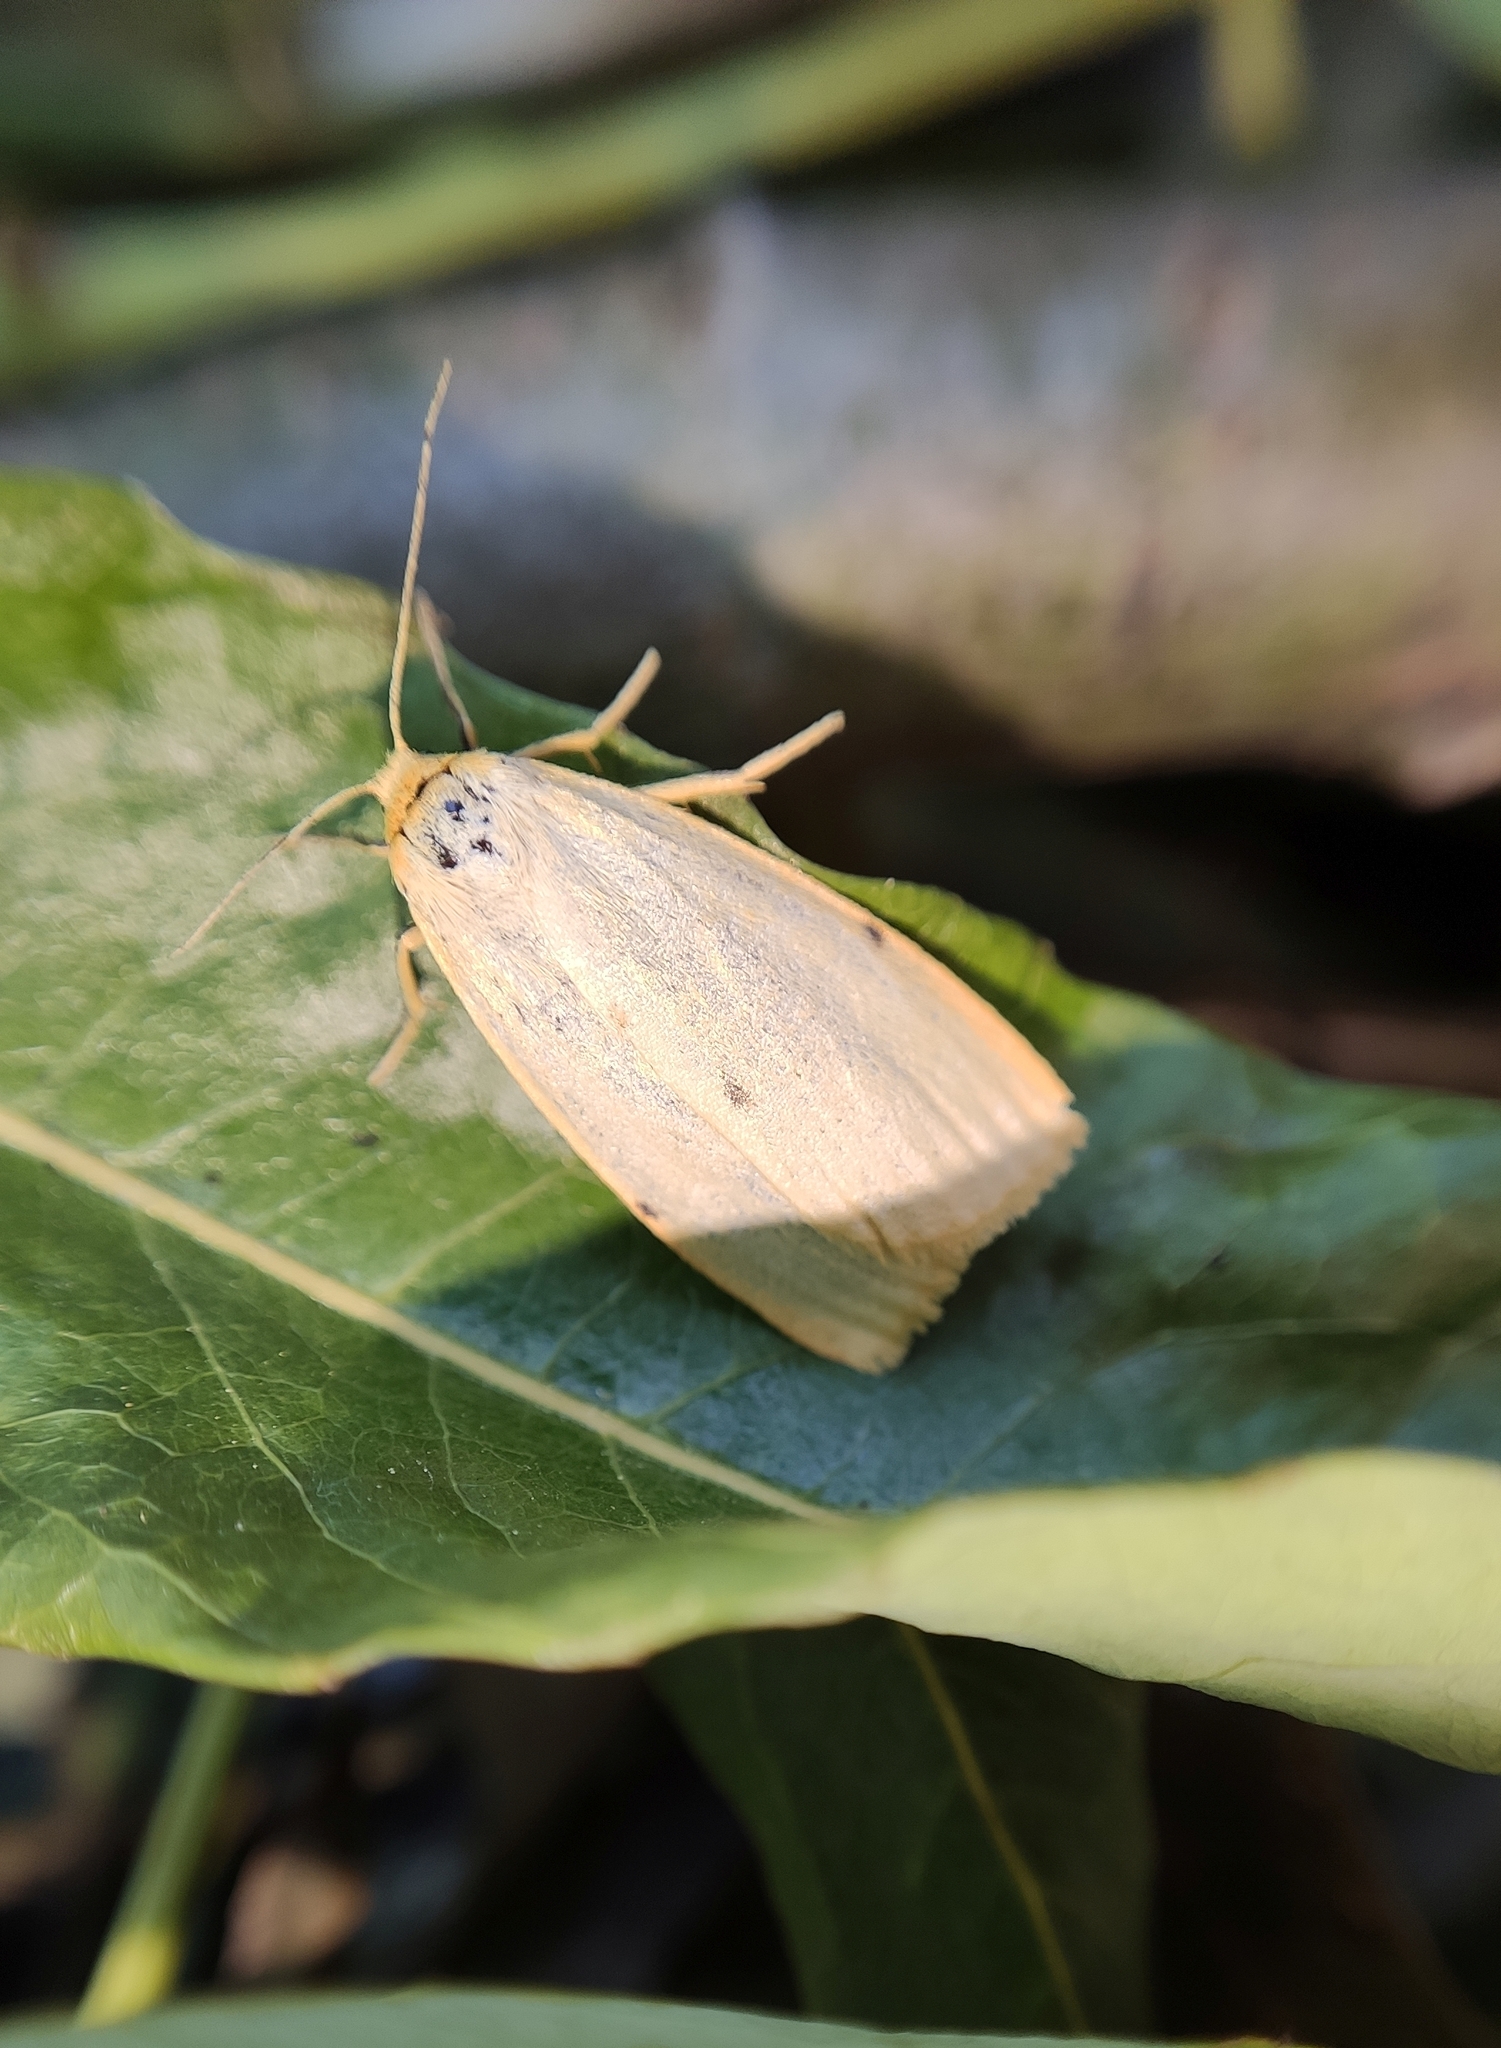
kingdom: Animalia
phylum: Arthropoda
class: Insecta
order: Lepidoptera
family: Erebidae
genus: Cybosia
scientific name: Cybosia mesomella
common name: Four-dotted footman
